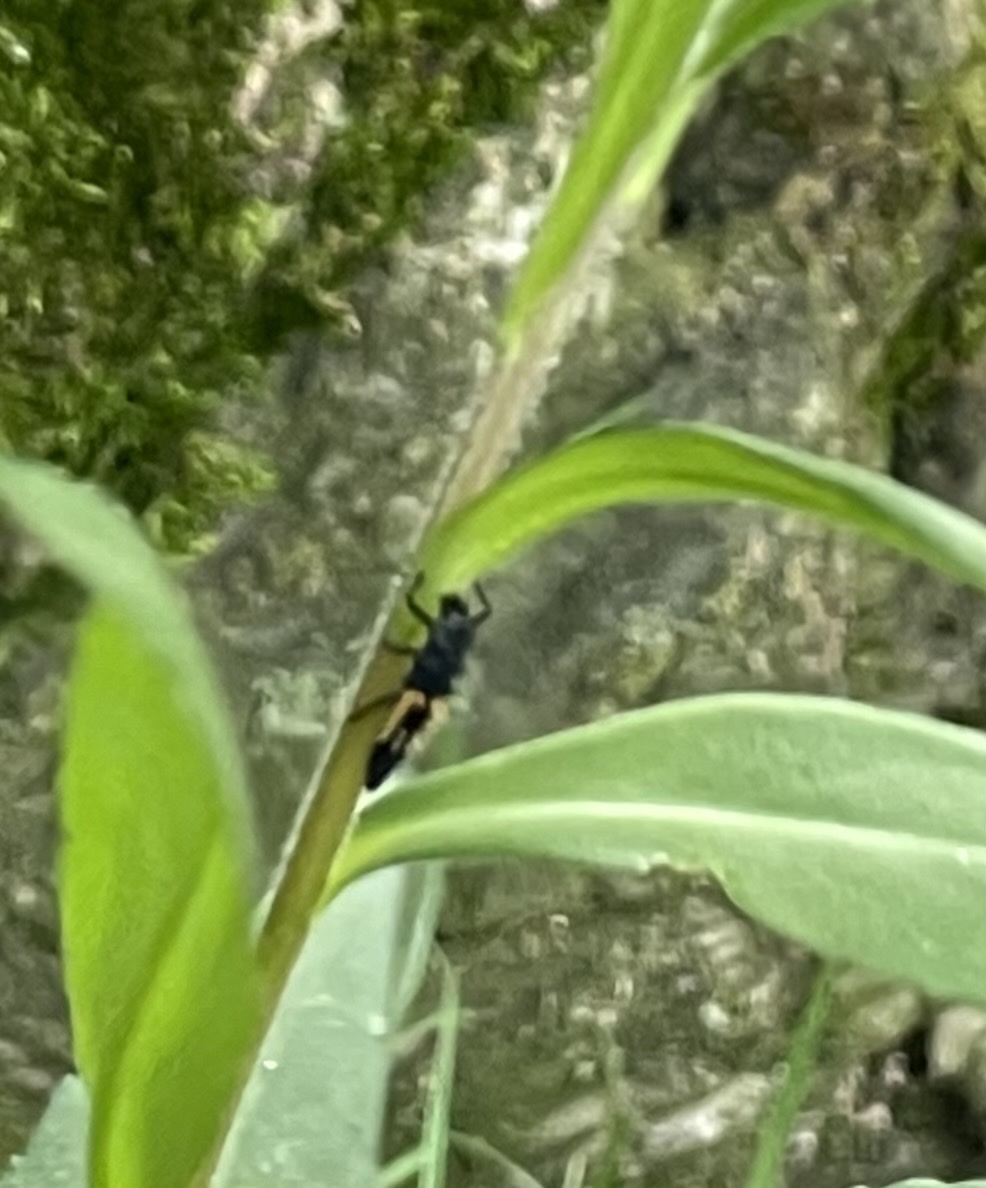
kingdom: Animalia
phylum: Arthropoda
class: Insecta
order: Coleoptera
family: Coccinellidae
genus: Harmonia
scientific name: Harmonia axyridis
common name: Harlequin ladybird
